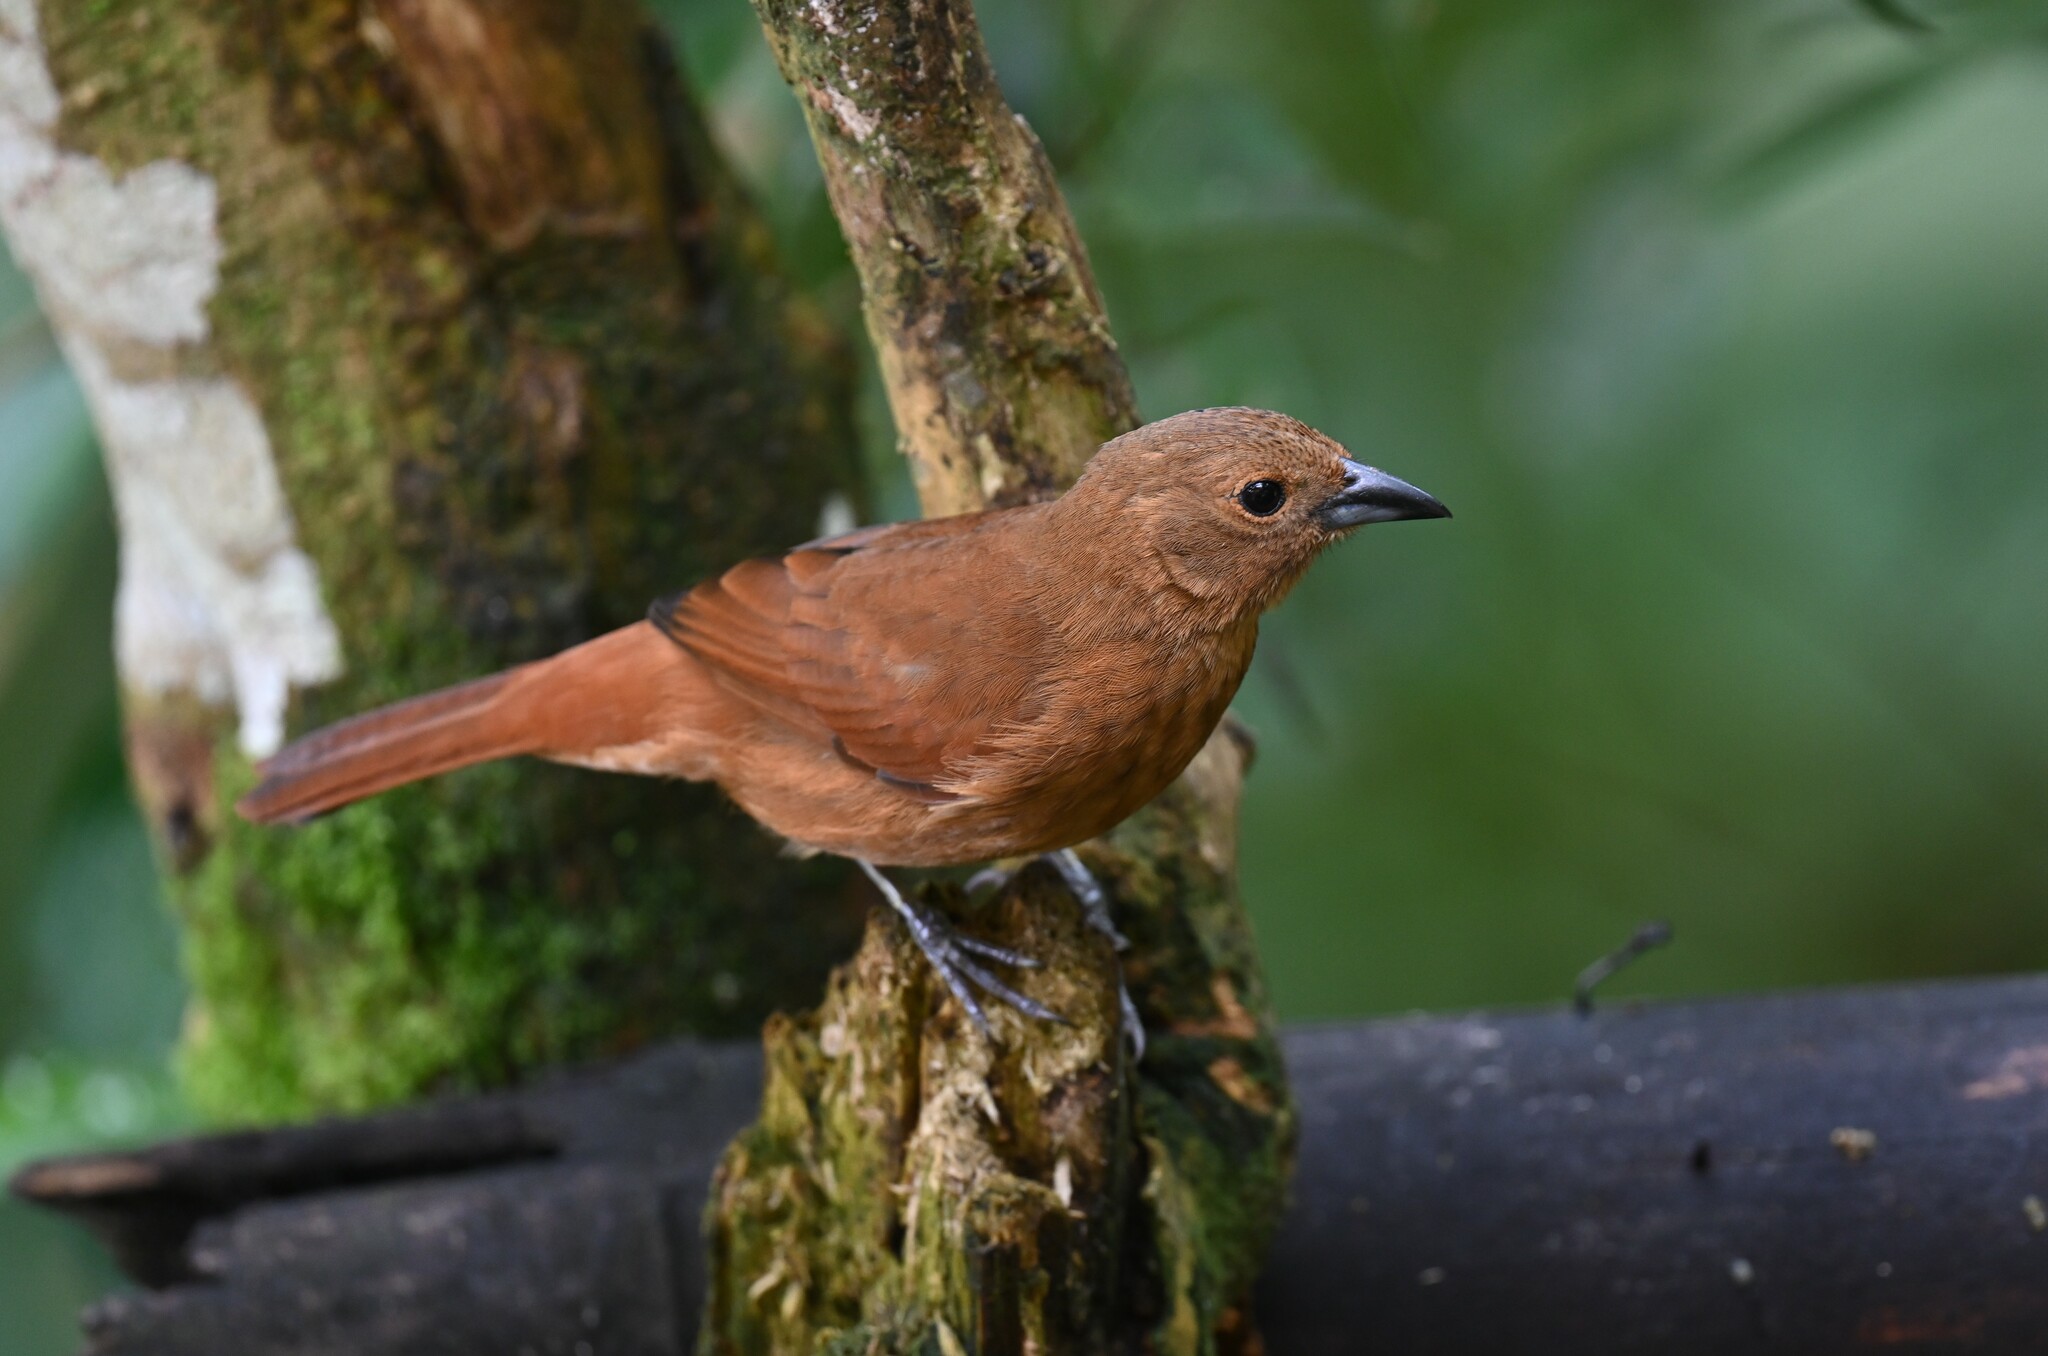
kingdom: Animalia
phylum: Chordata
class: Aves
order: Passeriformes
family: Thraupidae
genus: Tachyphonus
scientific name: Tachyphonus rufus
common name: White-lined tanager
